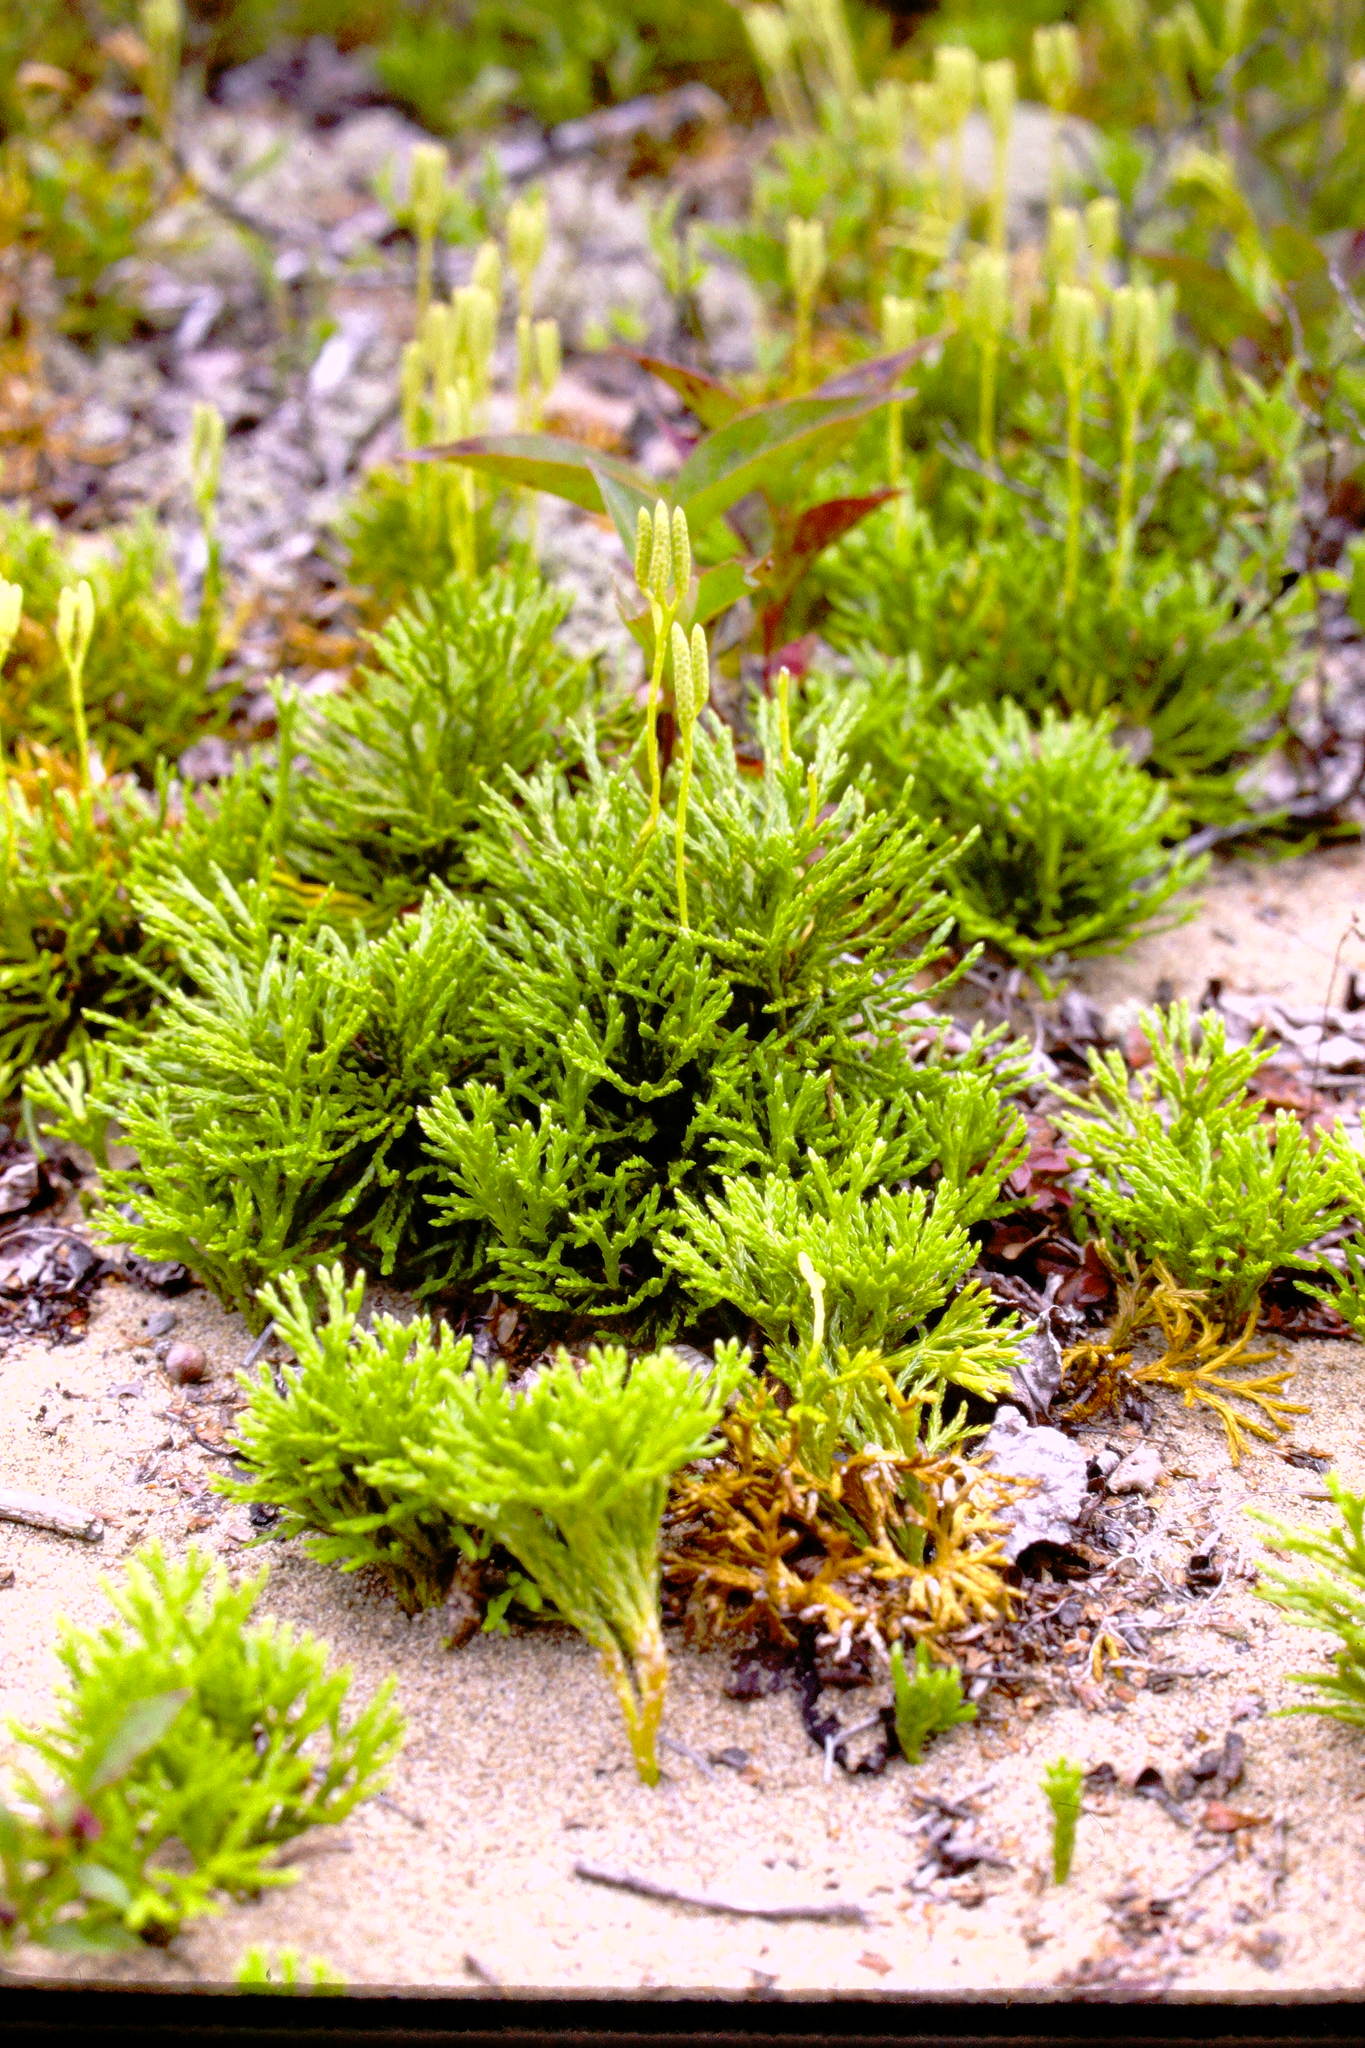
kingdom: Plantae
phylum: Tracheophyta
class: Lycopodiopsida
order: Lycopodiales
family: Lycopodiaceae
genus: Diphasiastrum
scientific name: Diphasiastrum tristachyum
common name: Blue ground-cedar
